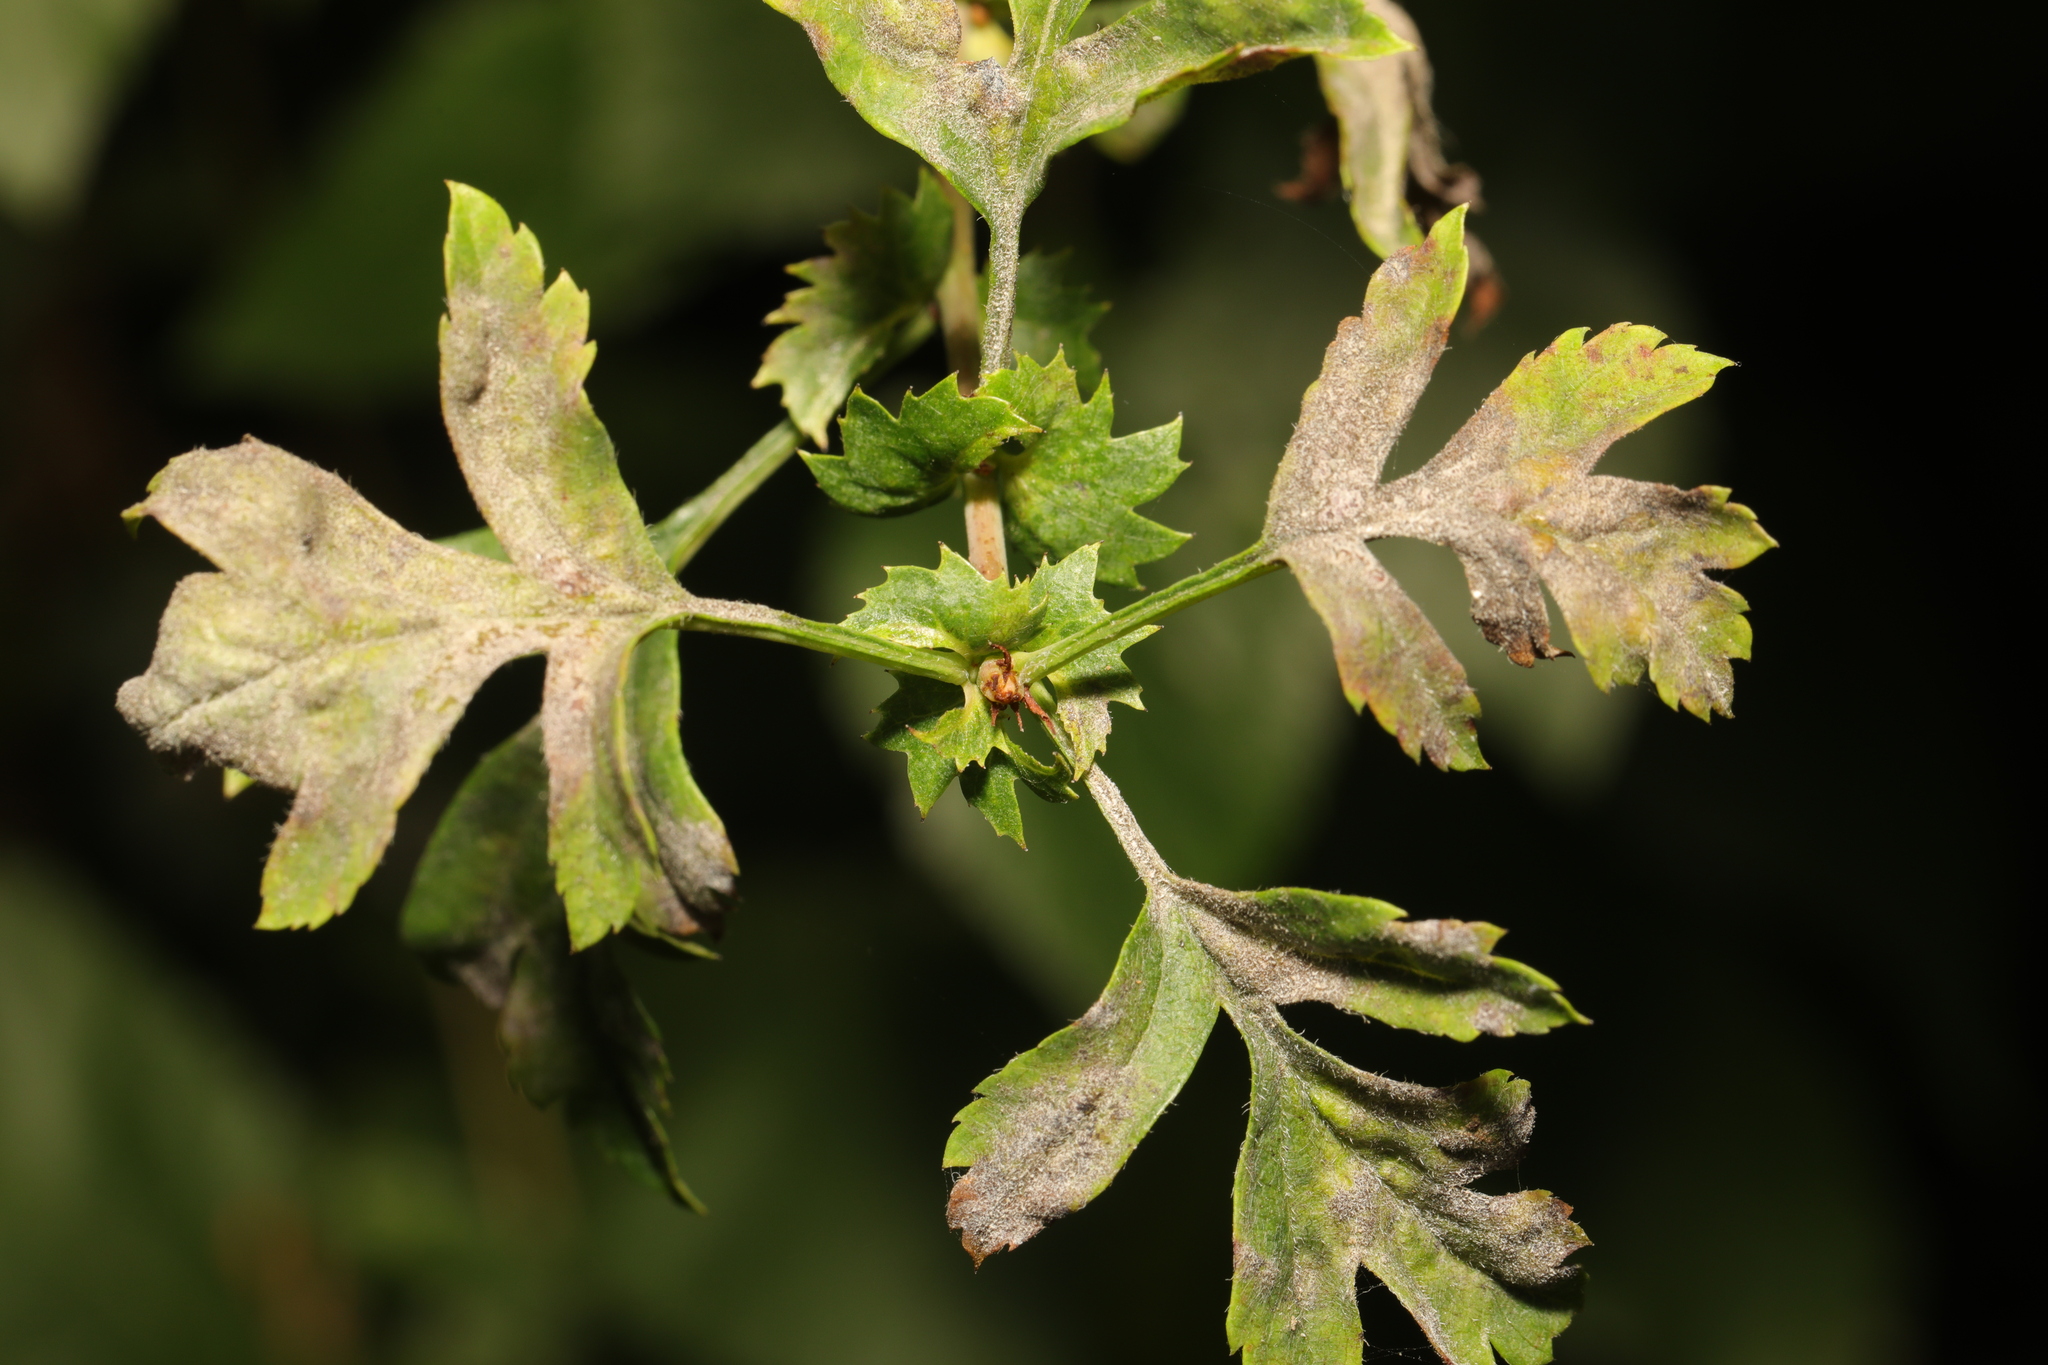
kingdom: Fungi
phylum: Ascomycota
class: Leotiomycetes
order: Helotiales
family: Erysiphaceae
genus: Podosphaera
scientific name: Podosphaera clandestina
